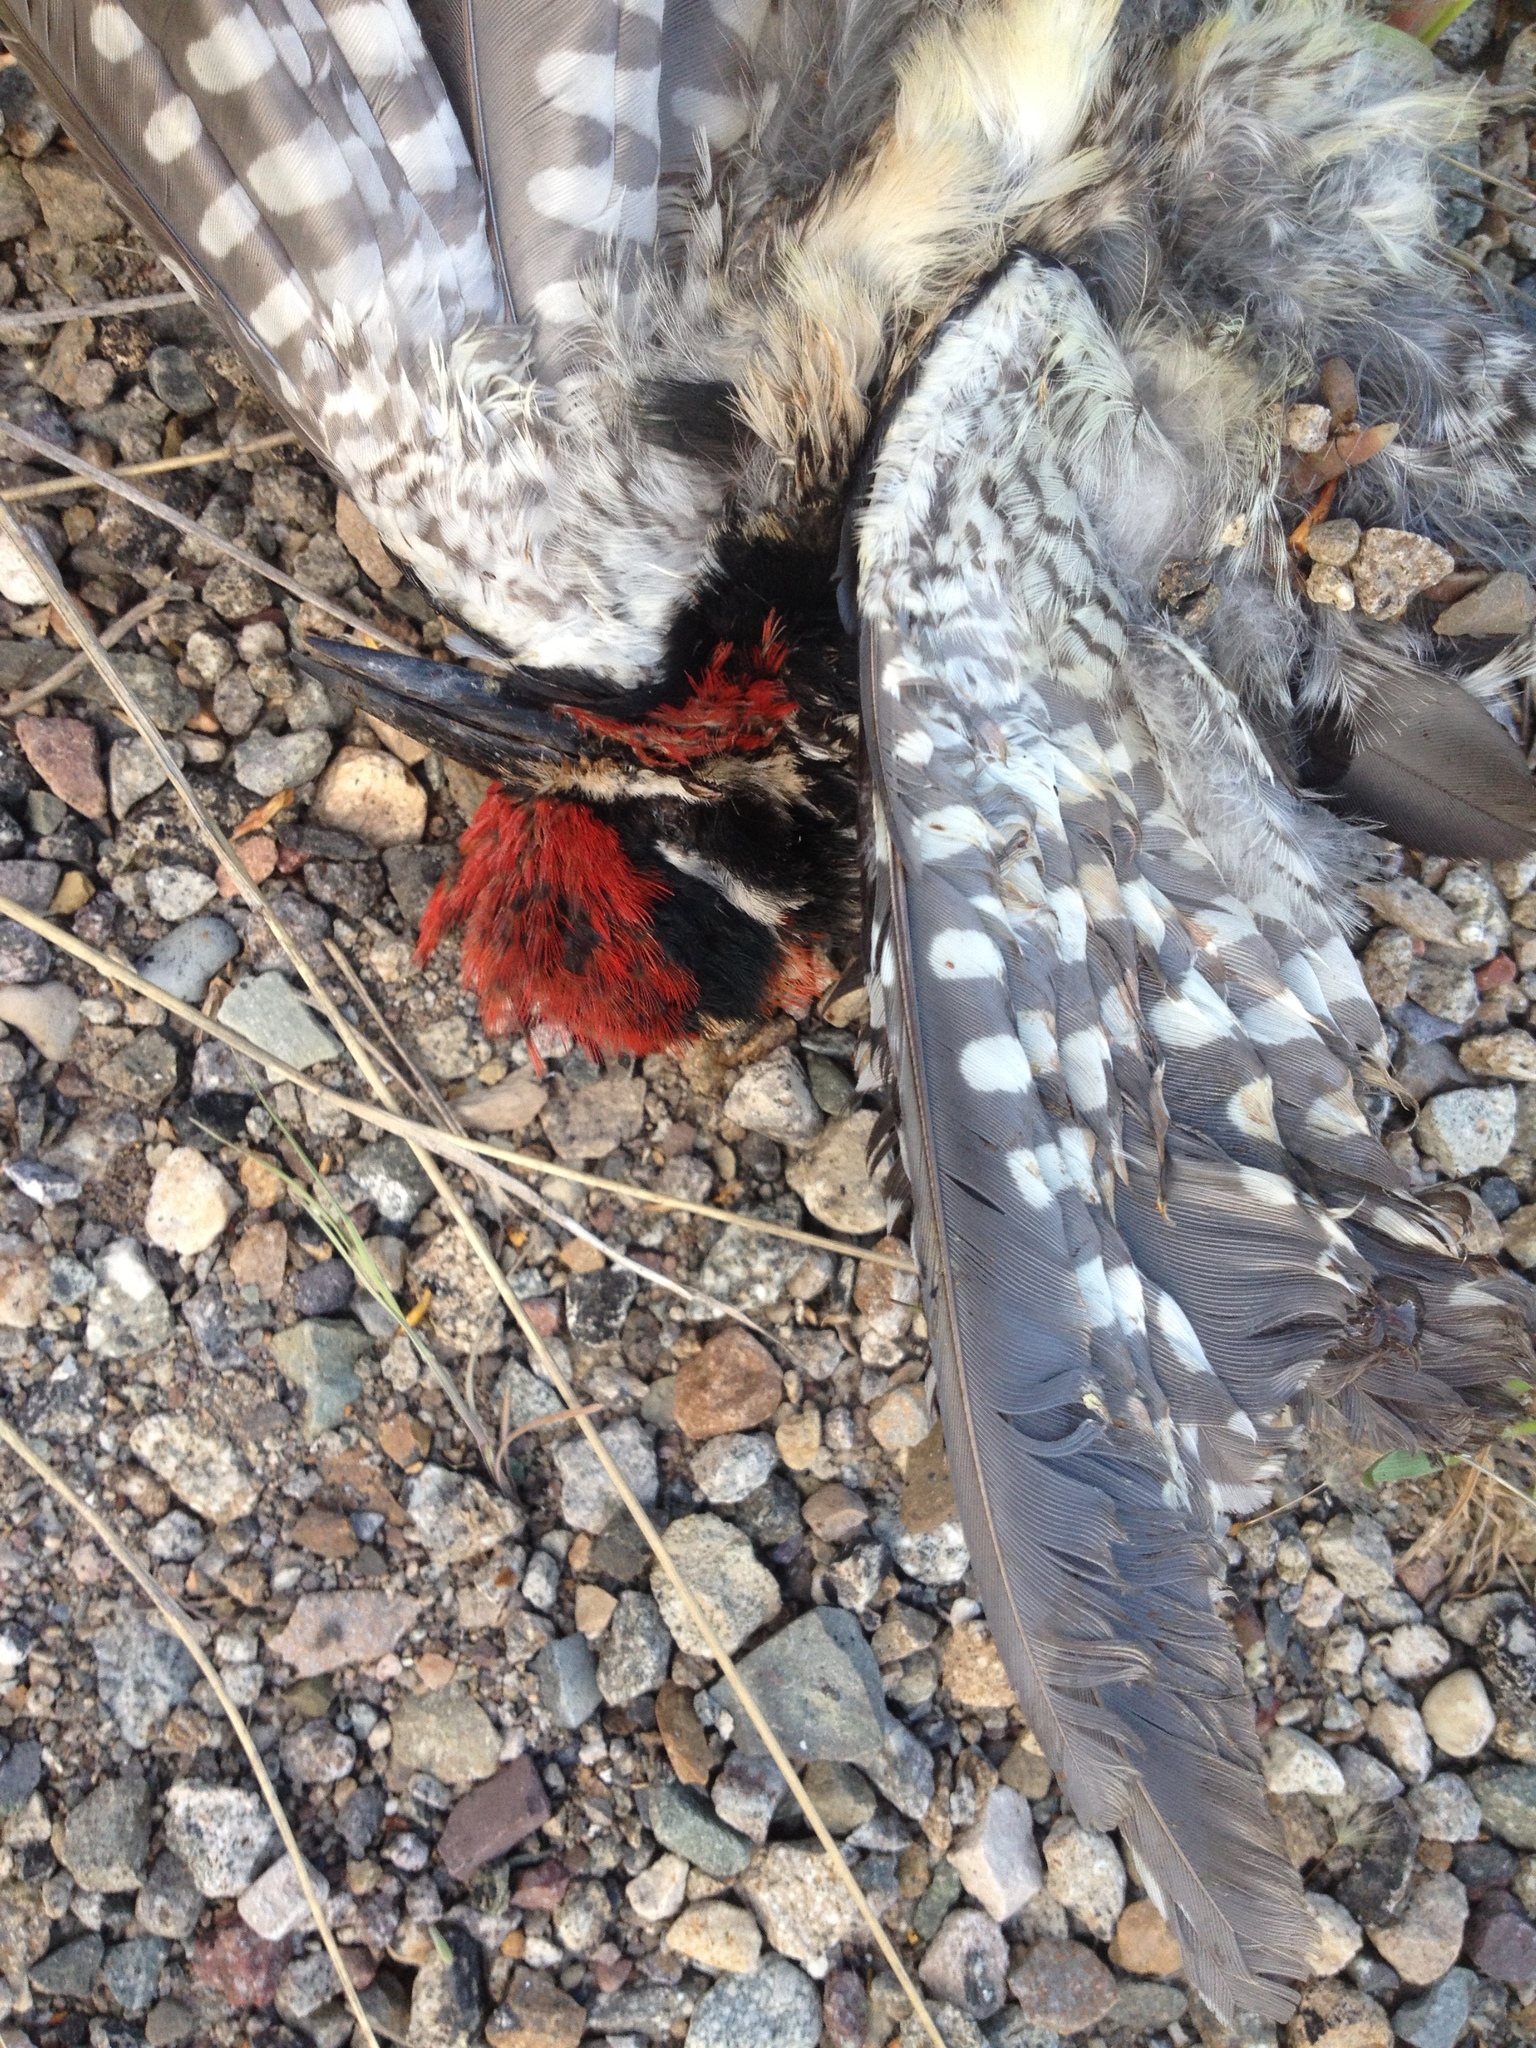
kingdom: Animalia
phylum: Chordata
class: Aves
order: Piciformes
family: Picidae
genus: Sphyrapicus
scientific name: Sphyrapicus nuchalis
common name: Red-naped sapsucker
